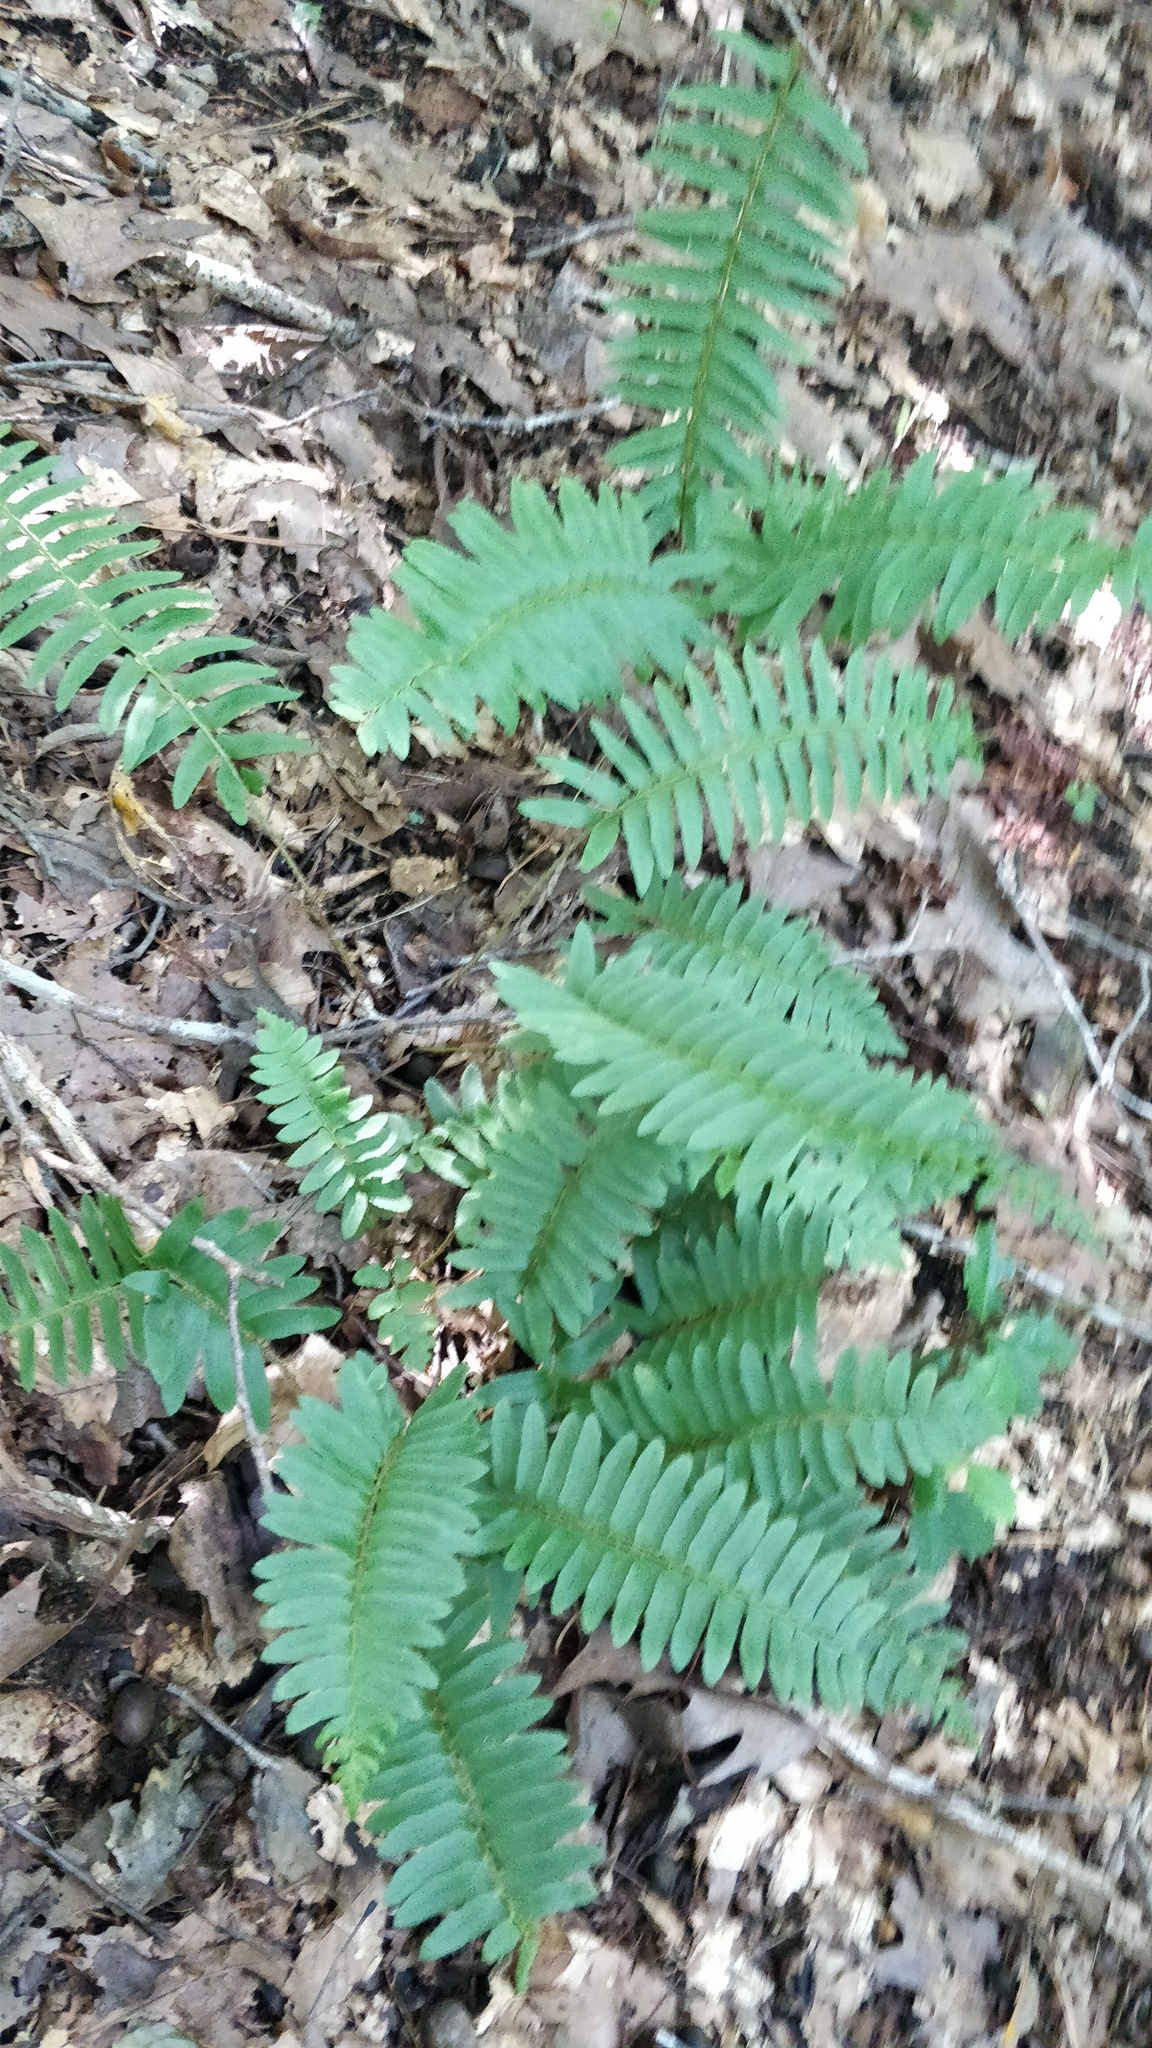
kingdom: Plantae
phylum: Tracheophyta
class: Polypodiopsida
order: Polypodiales
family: Dryopteridaceae
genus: Polystichum
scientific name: Polystichum acrostichoides
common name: Christmas fern
